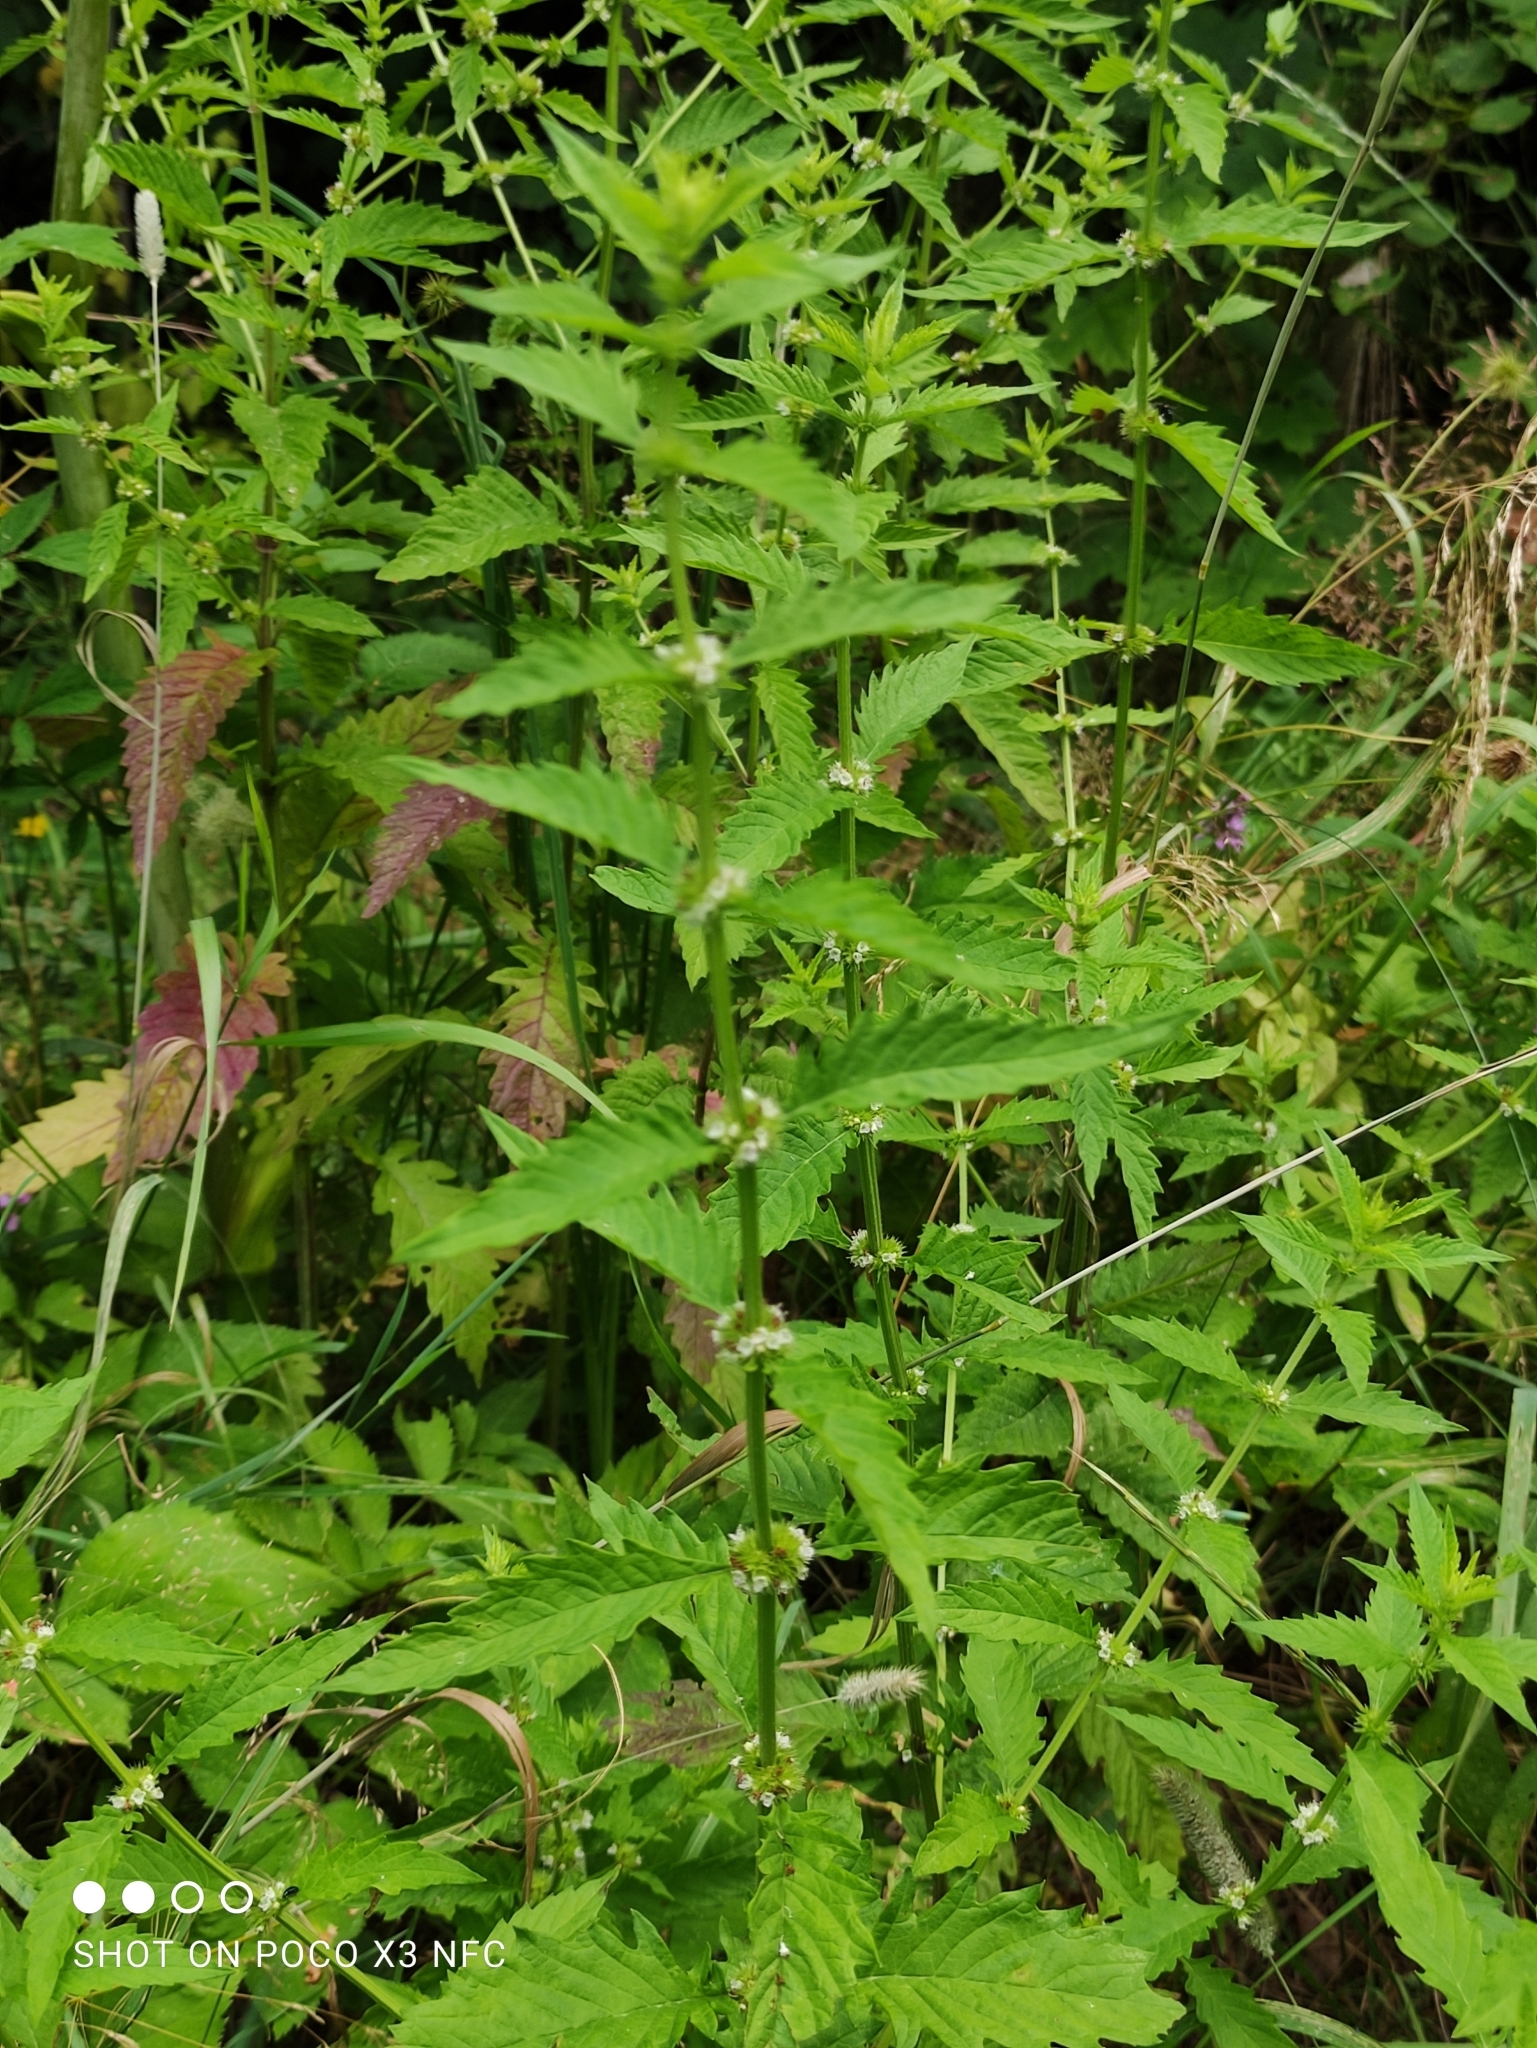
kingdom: Plantae
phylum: Tracheophyta
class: Magnoliopsida
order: Lamiales
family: Lamiaceae
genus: Lycopus
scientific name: Lycopus europaeus
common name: European bugleweed
